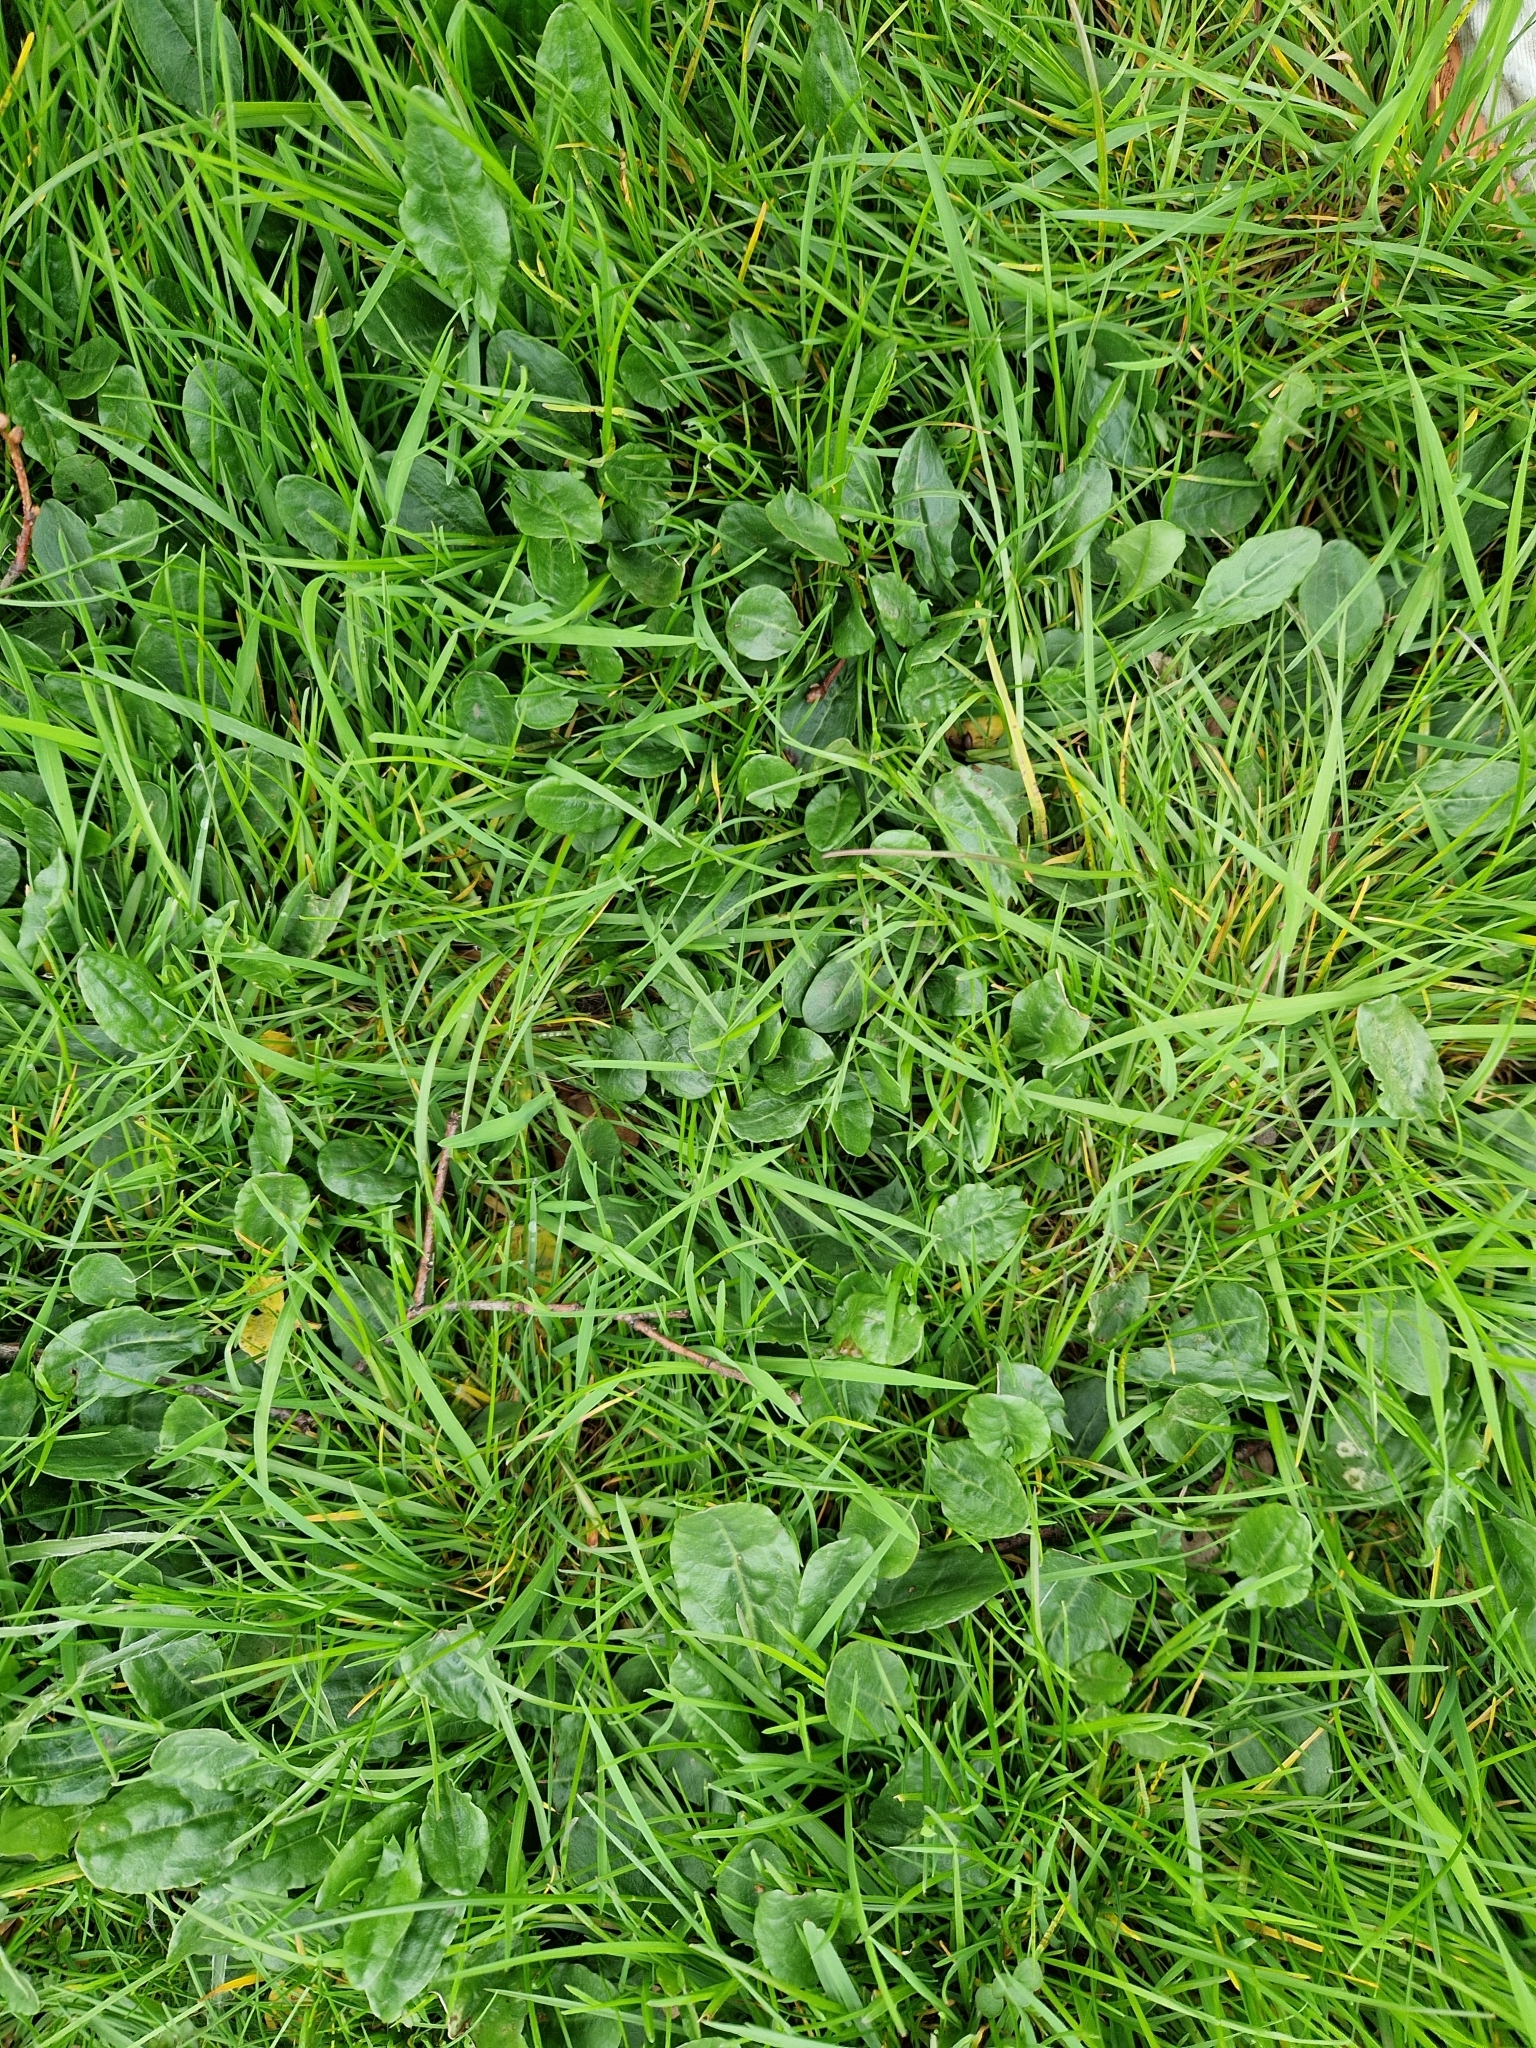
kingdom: Plantae
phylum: Tracheophyta
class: Magnoliopsida
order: Caryophyllales
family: Polygonaceae
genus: Rumex
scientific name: Rumex acetosa
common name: Garden sorrel
